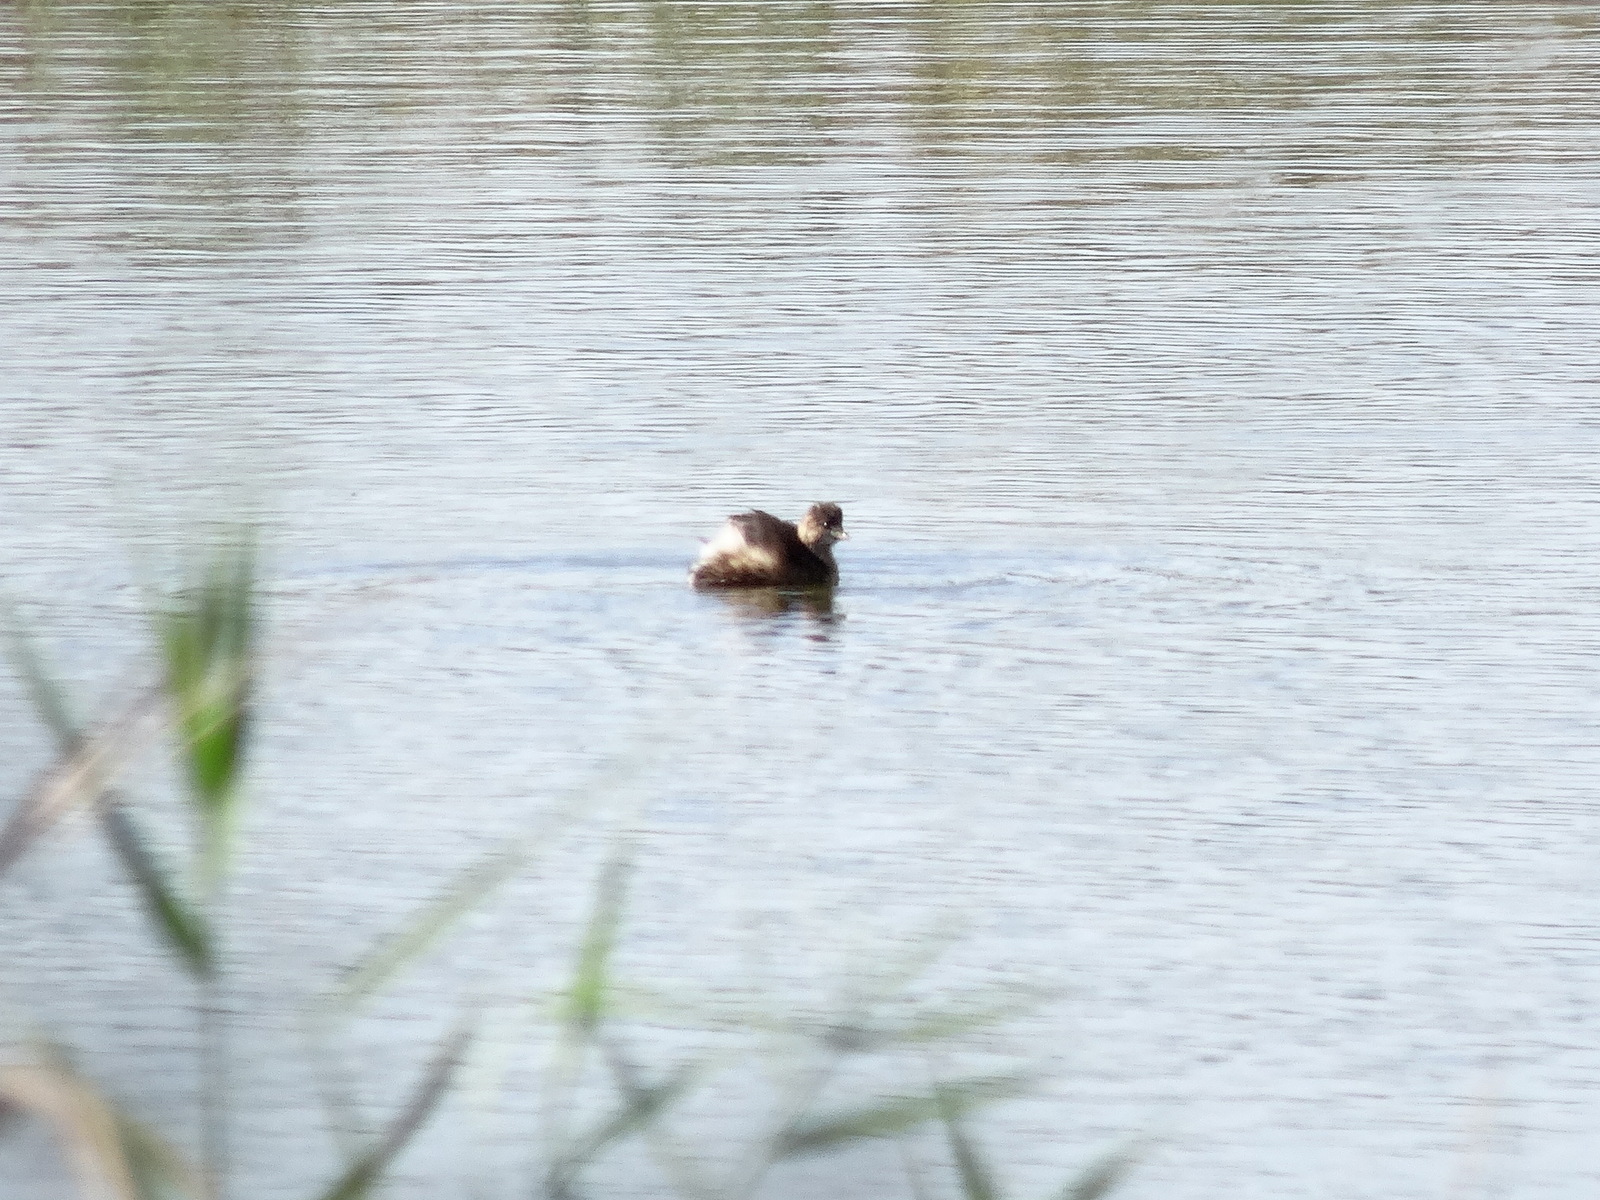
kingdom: Animalia
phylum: Chordata
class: Aves
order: Podicipediformes
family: Podicipedidae
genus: Tachybaptus
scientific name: Tachybaptus ruficollis
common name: Little grebe
